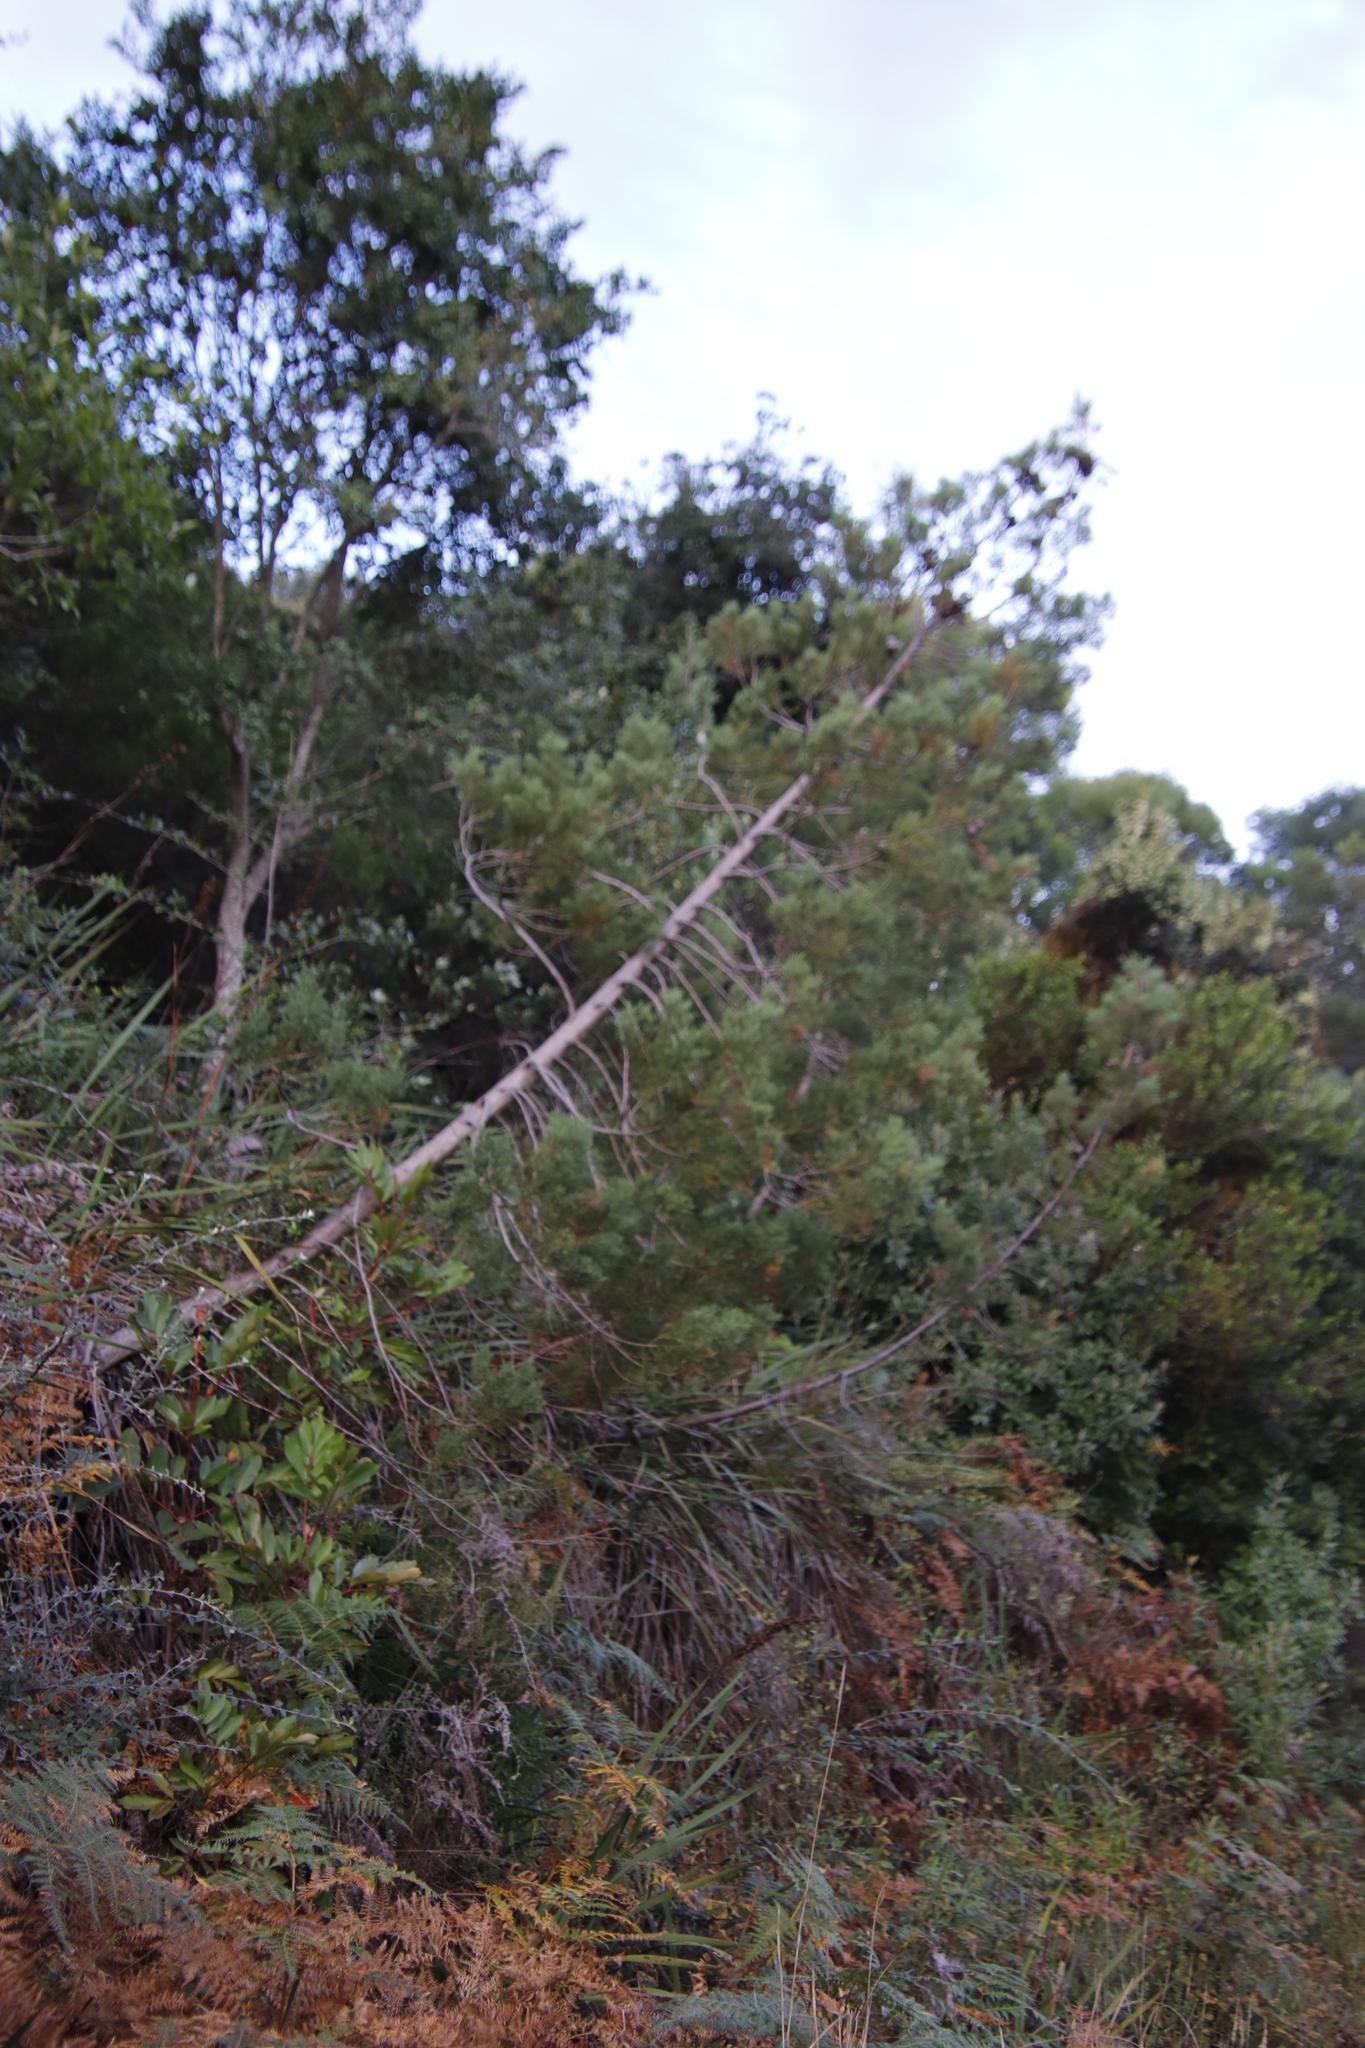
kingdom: Plantae
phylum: Tracheophyta
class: Pinopsida
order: Pinales
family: Cupressaceae
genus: Widdringtonia
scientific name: Widdringtonia nodiflora
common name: Cape cypress
